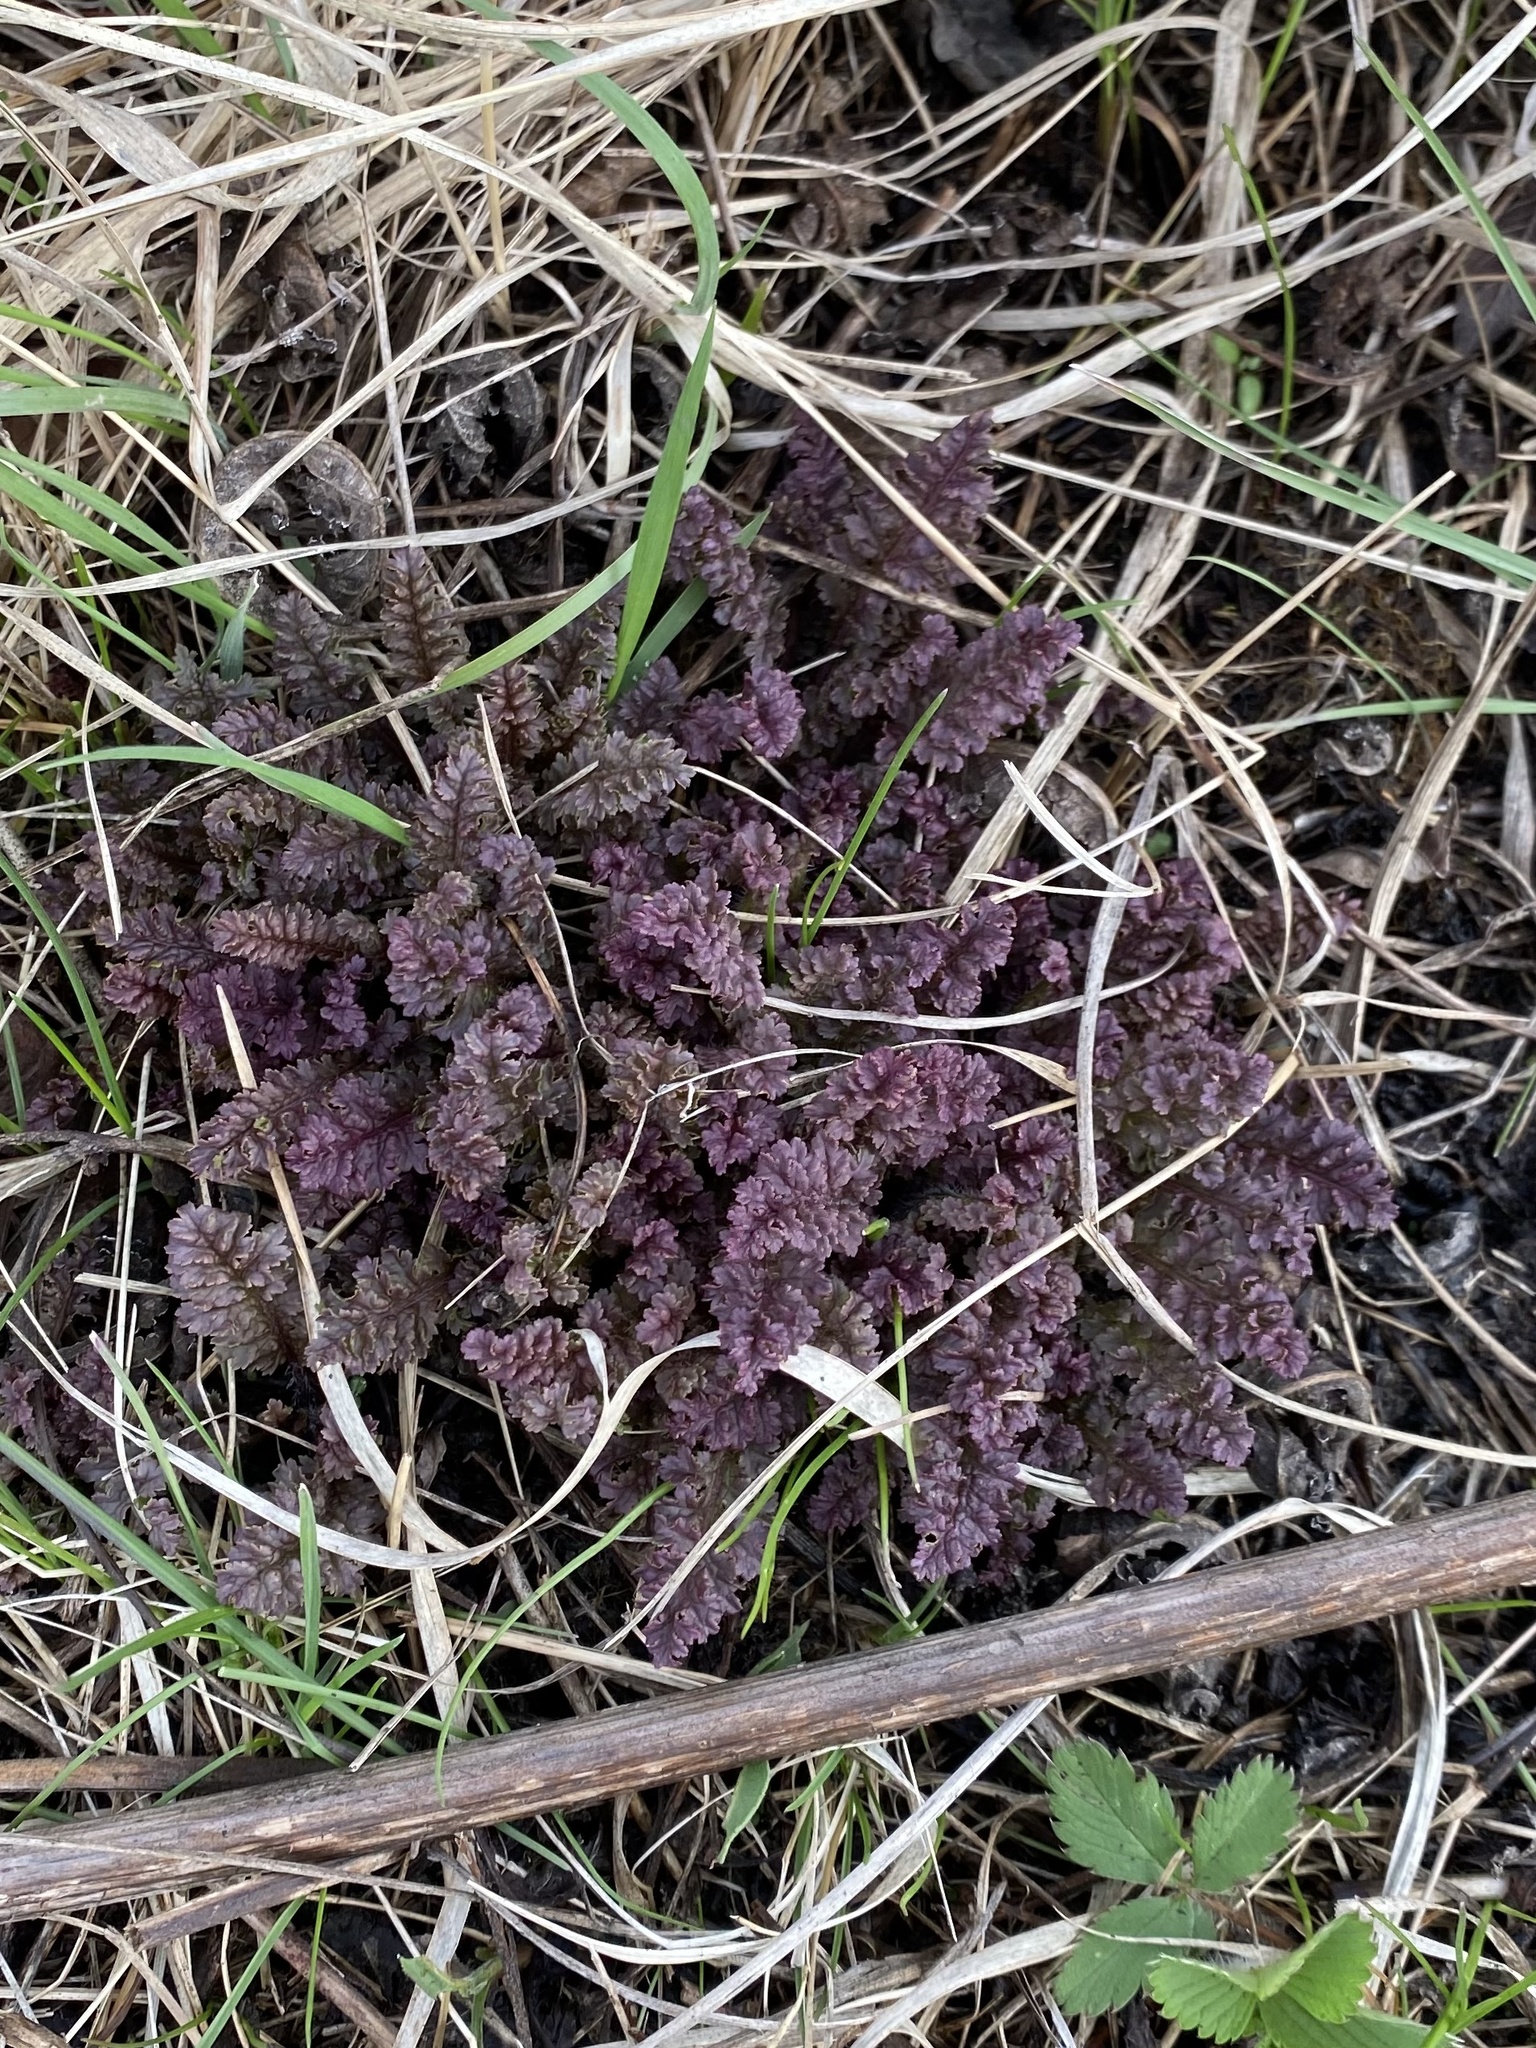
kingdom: Plantae
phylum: Tracheophyta
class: Magnoliopsida
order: Lamiales
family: Orobanchaceae
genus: Pedicularis
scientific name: Pedicularis canadensis
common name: Early lousewort
